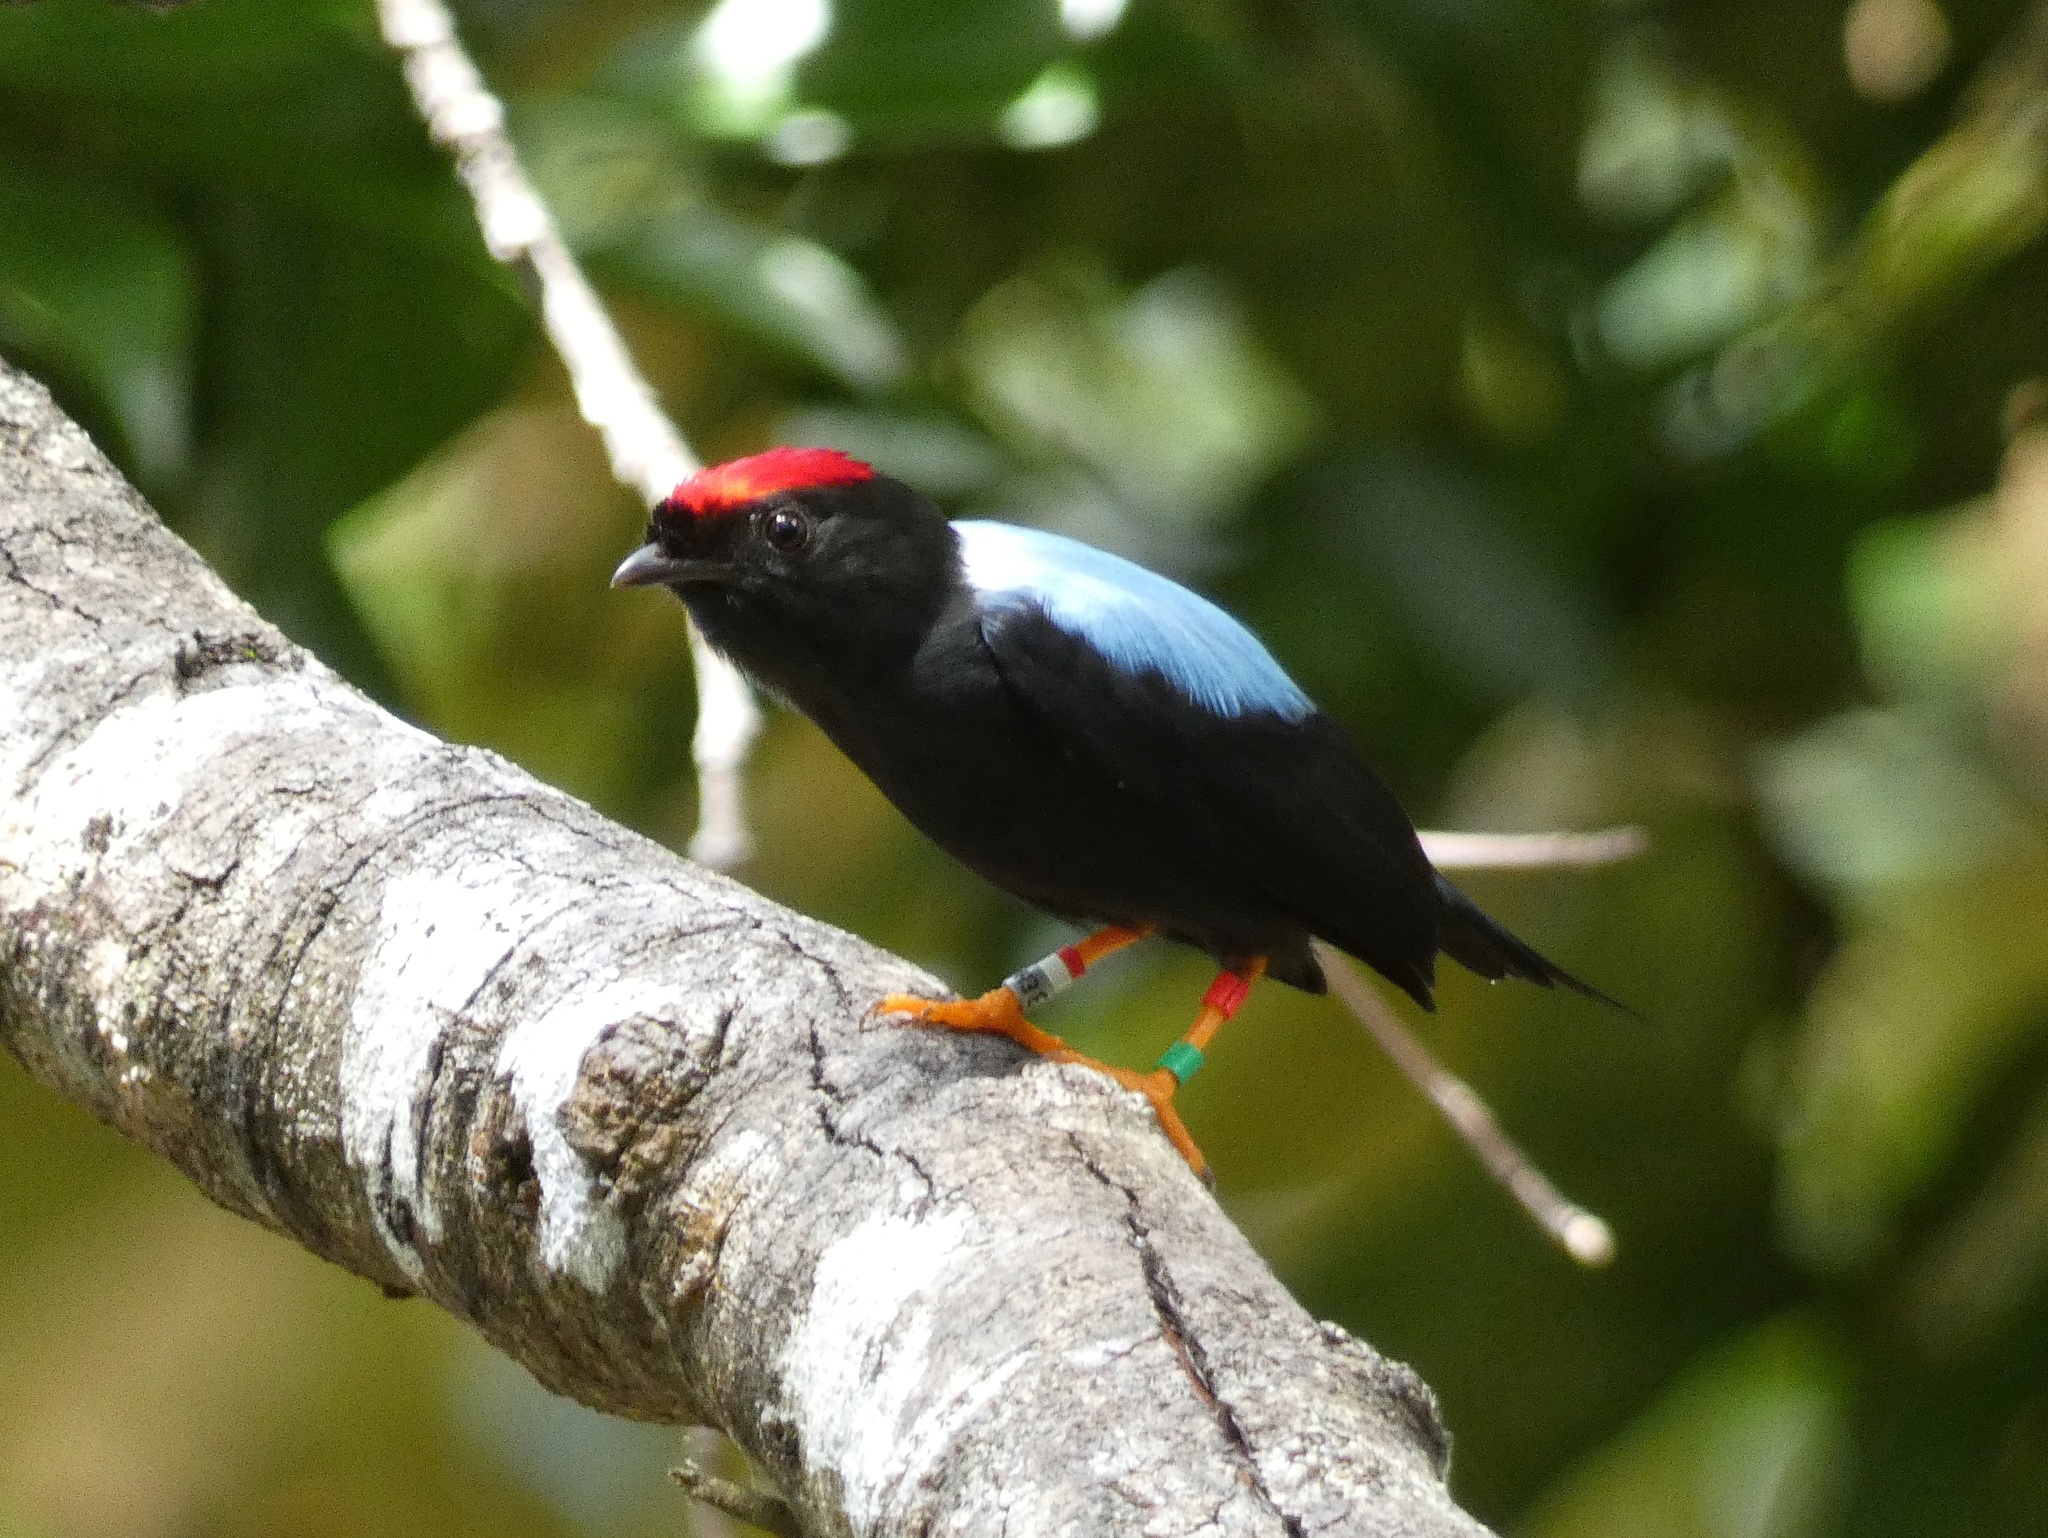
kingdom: Animalia
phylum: Chordata
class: Aves
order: Passeriformes
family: Pipridae
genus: Chiroxiphia
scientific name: Chiroxiphia lanceolata
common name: Lance-tailed manakin
